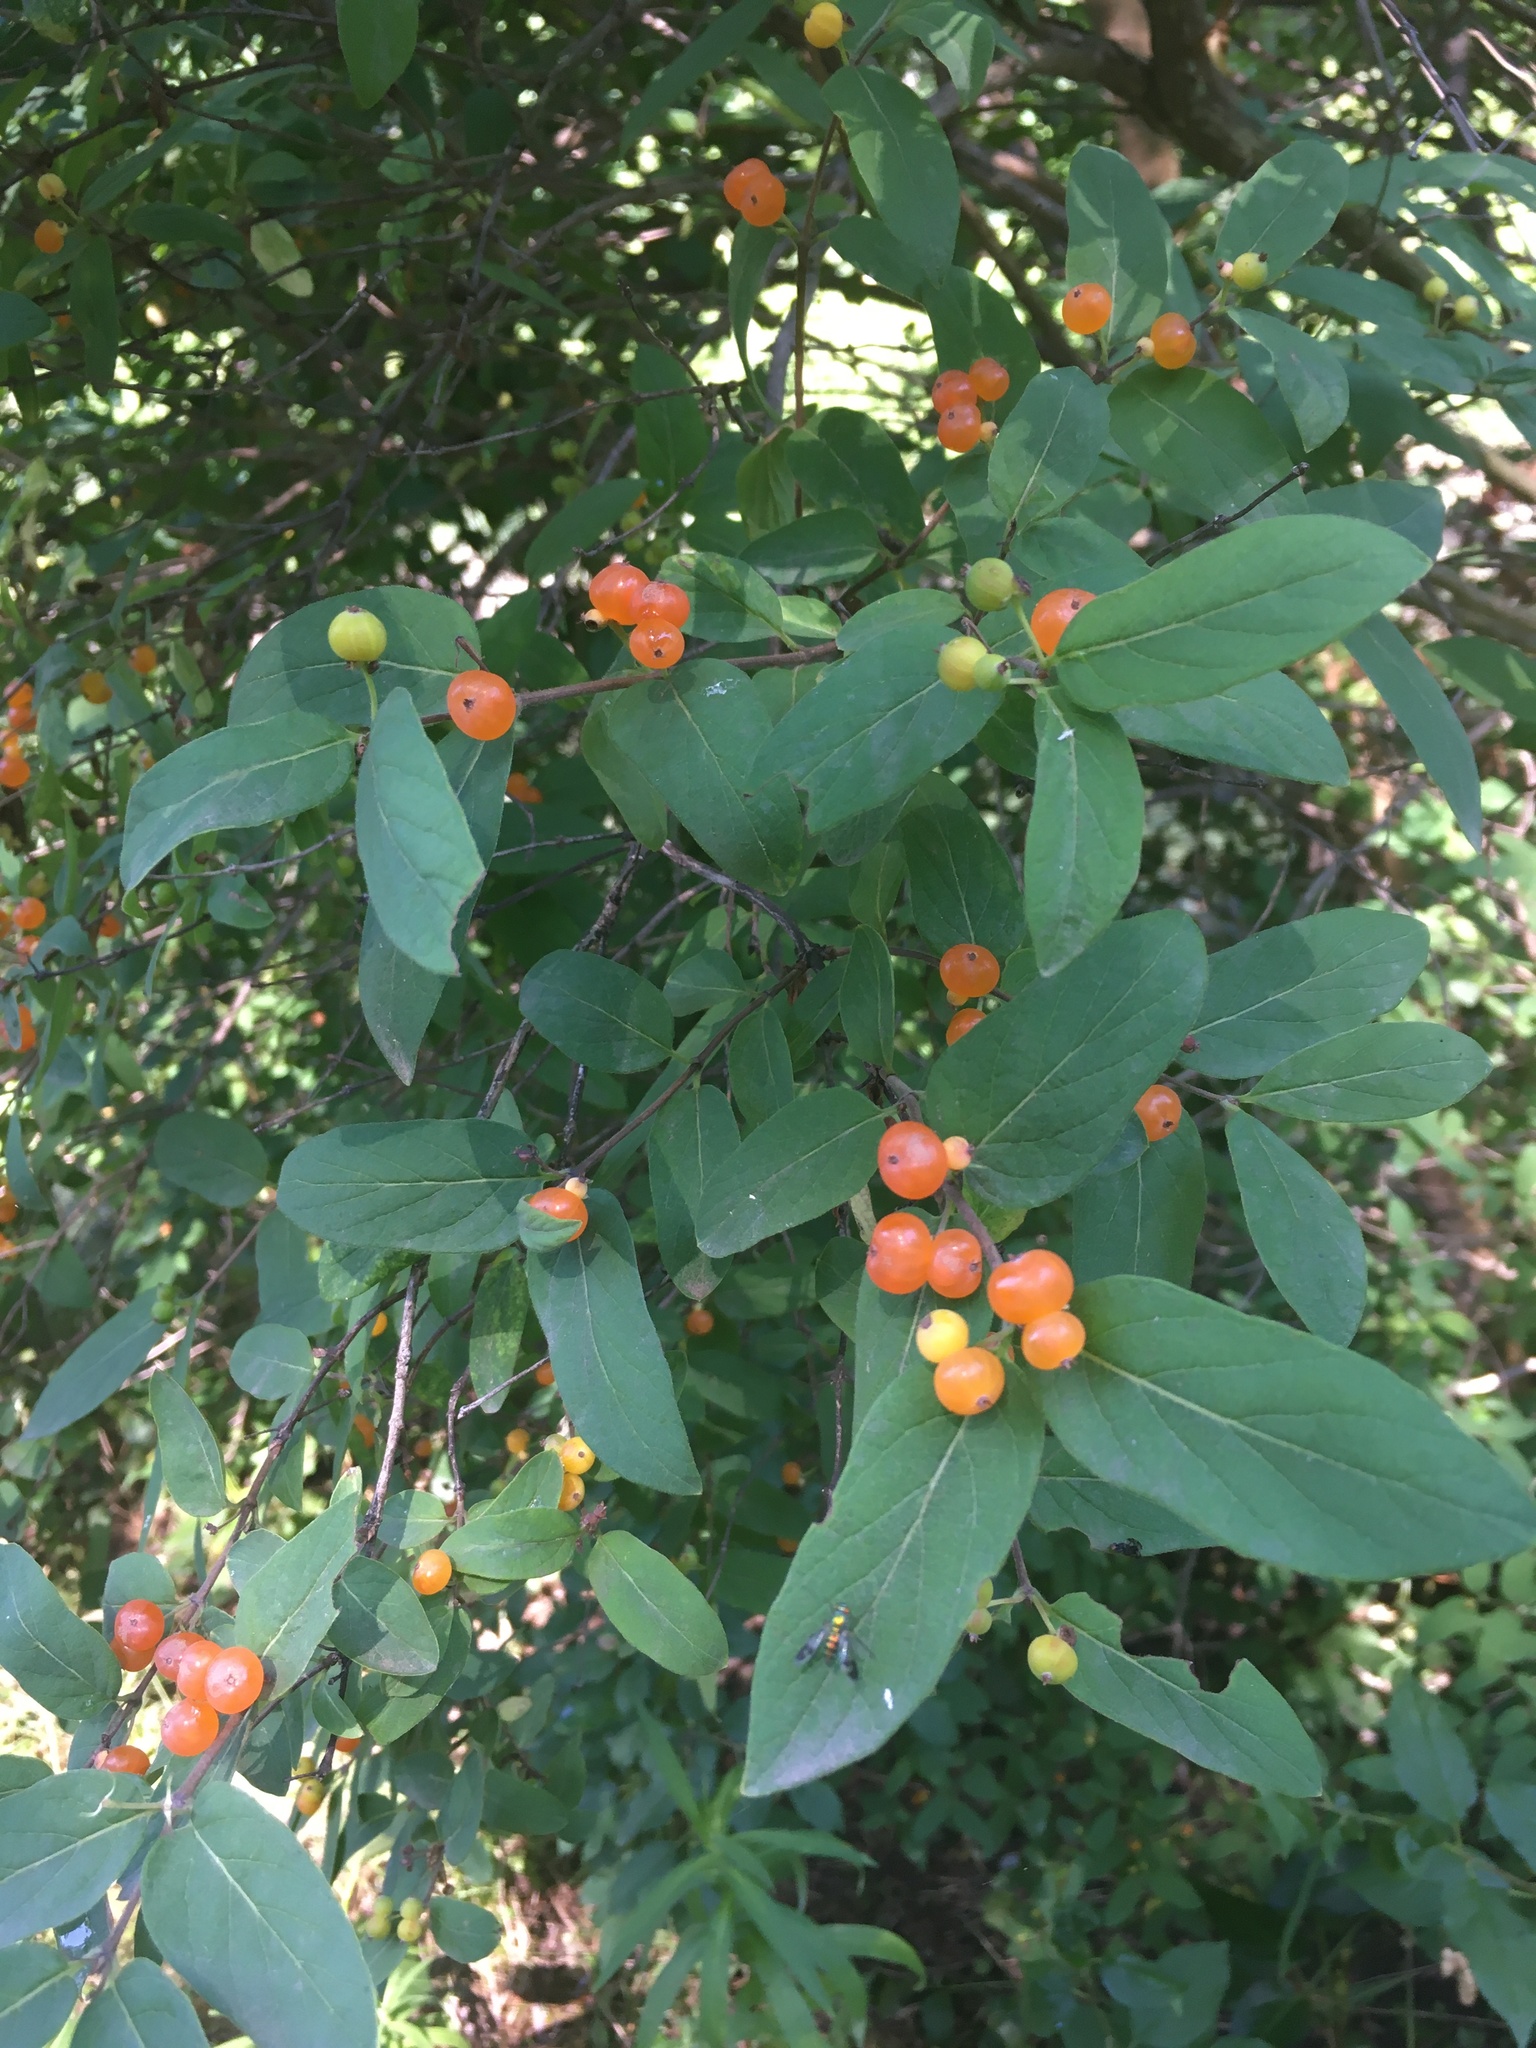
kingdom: Plantae
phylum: Tracheophyta
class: Magnoliopsida
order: Dipsacales
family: Caprifoliaceae
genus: Lonicera
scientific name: Lonicera tatarica
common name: Tatarian honeysuckle
